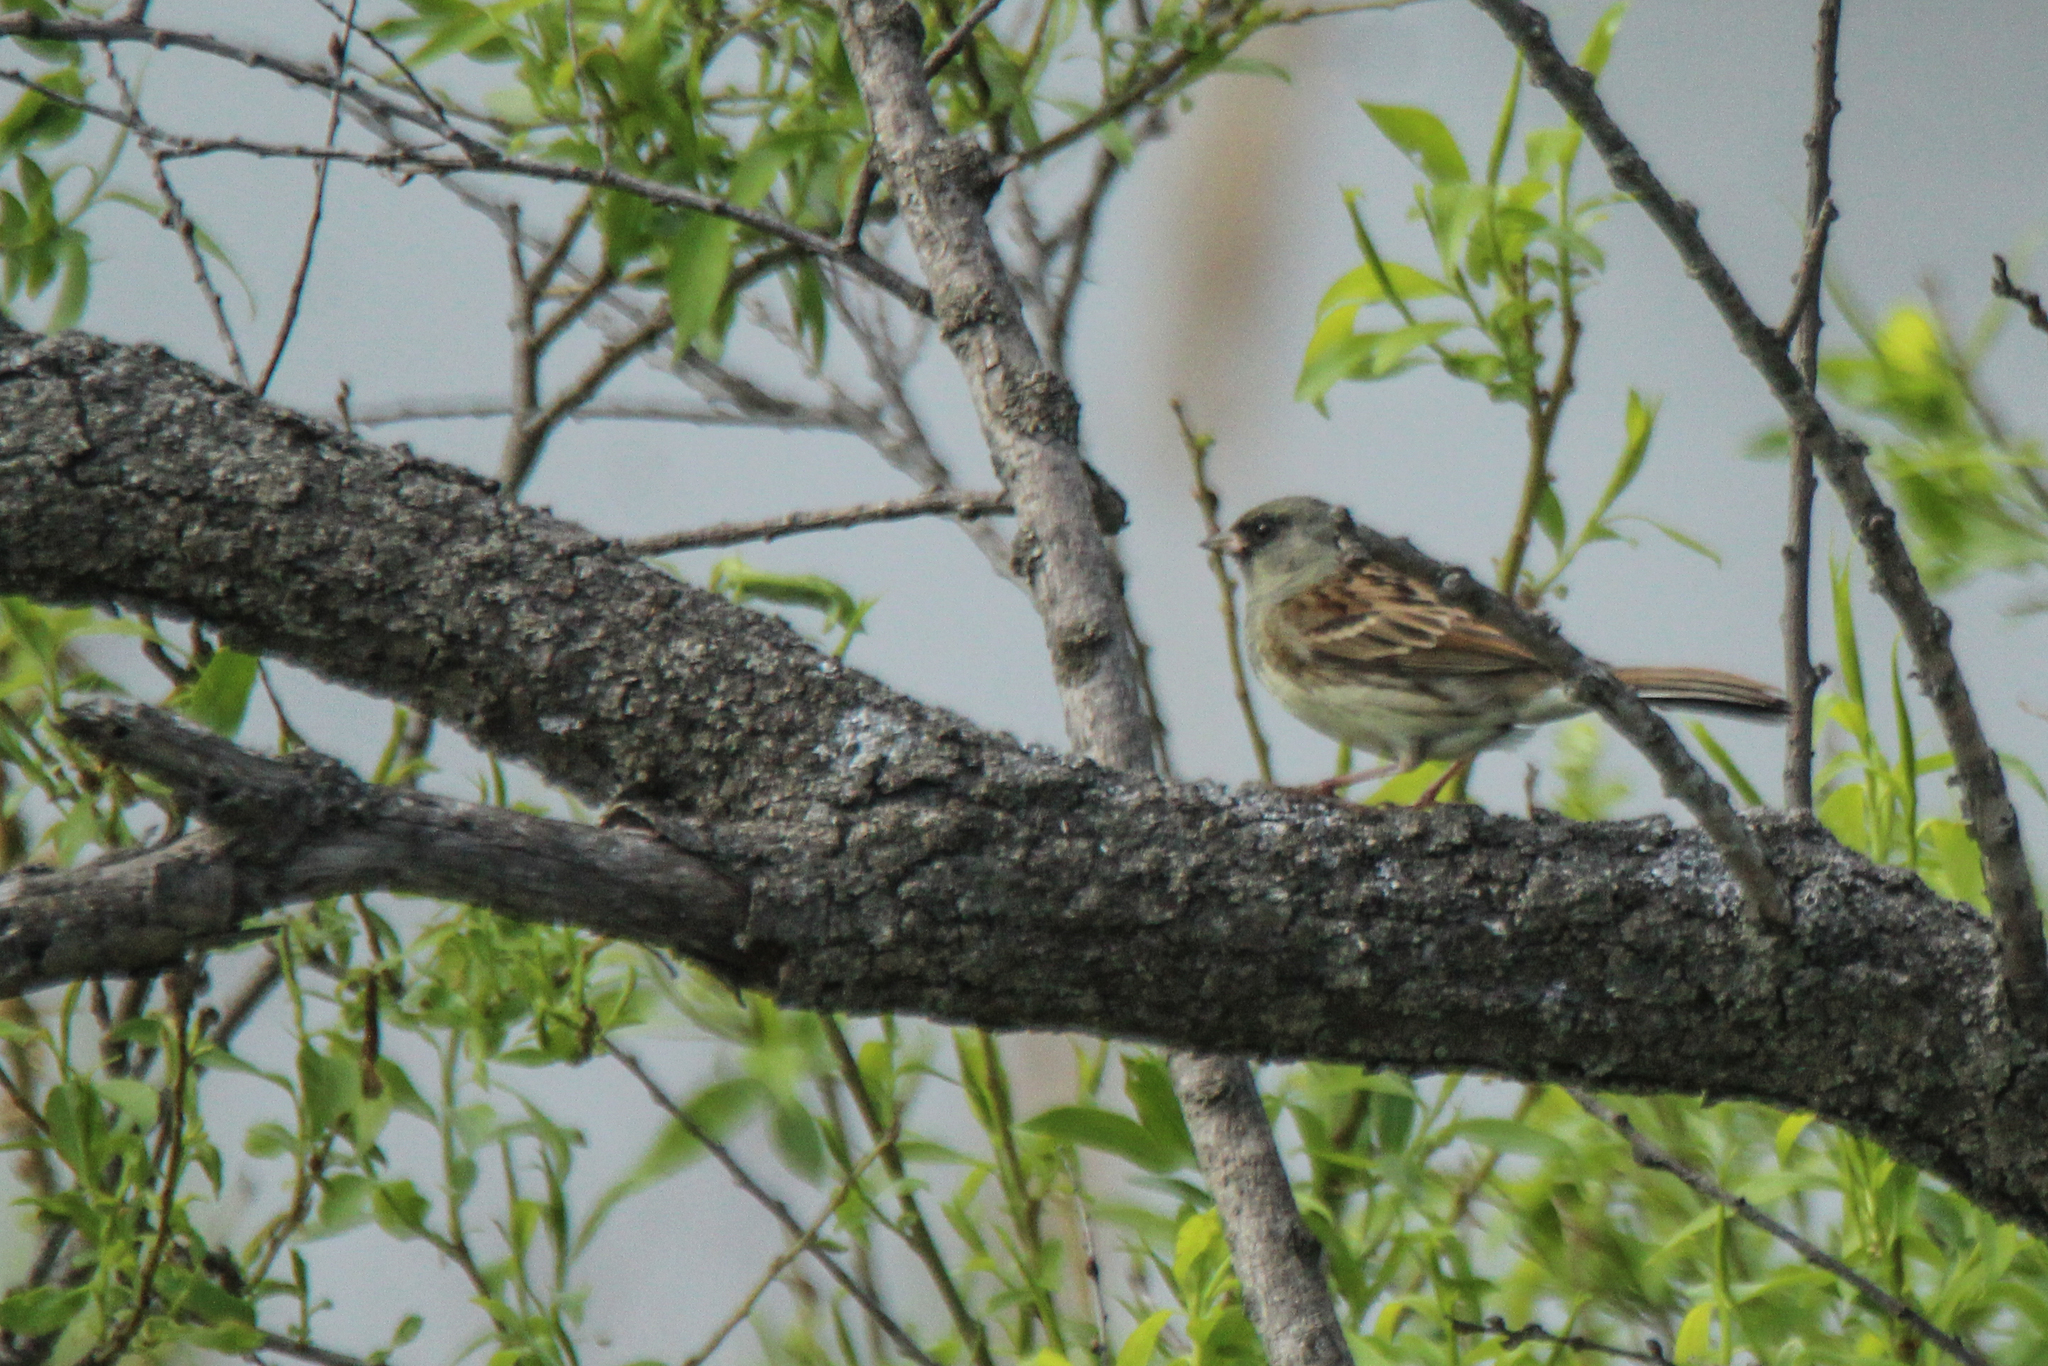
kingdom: Animalia
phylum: Chordata
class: Aves
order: Passeriformes
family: Emberizidae
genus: Emberiza
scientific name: Emberiza spodocephala
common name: Black-faced bunting
